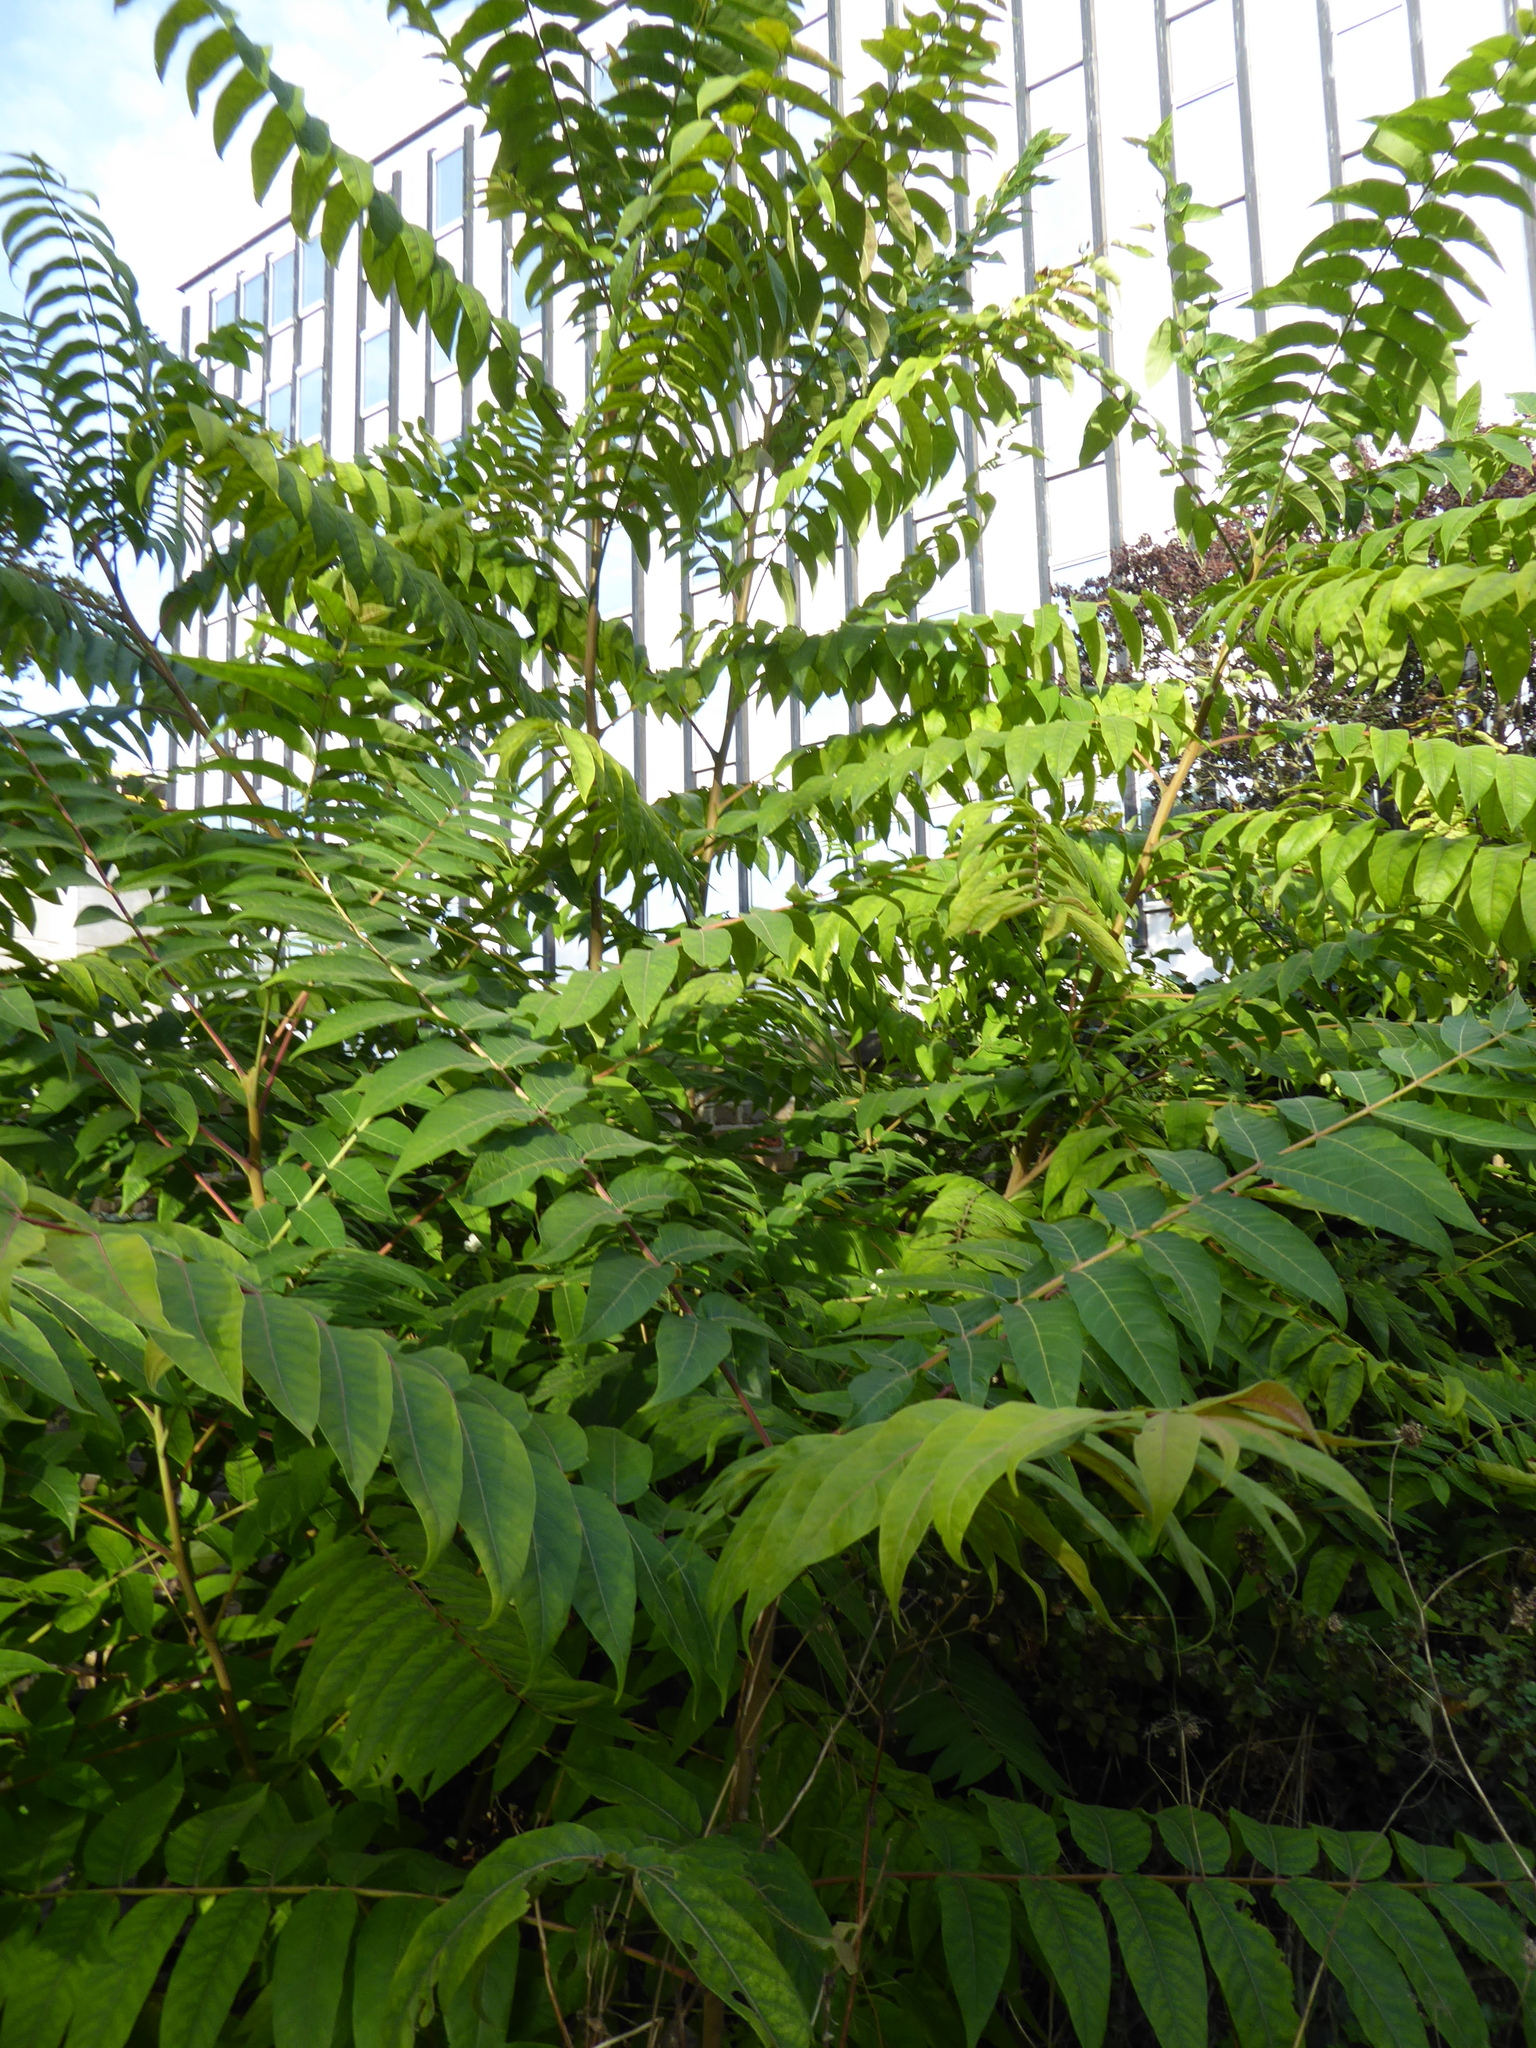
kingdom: Plantae
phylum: Tracheophyta
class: Magnoliopsida
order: Sapindales
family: Simaroubaceae
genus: Ailanthus
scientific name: Ailanthus altissima
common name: Tree-of-heaven
